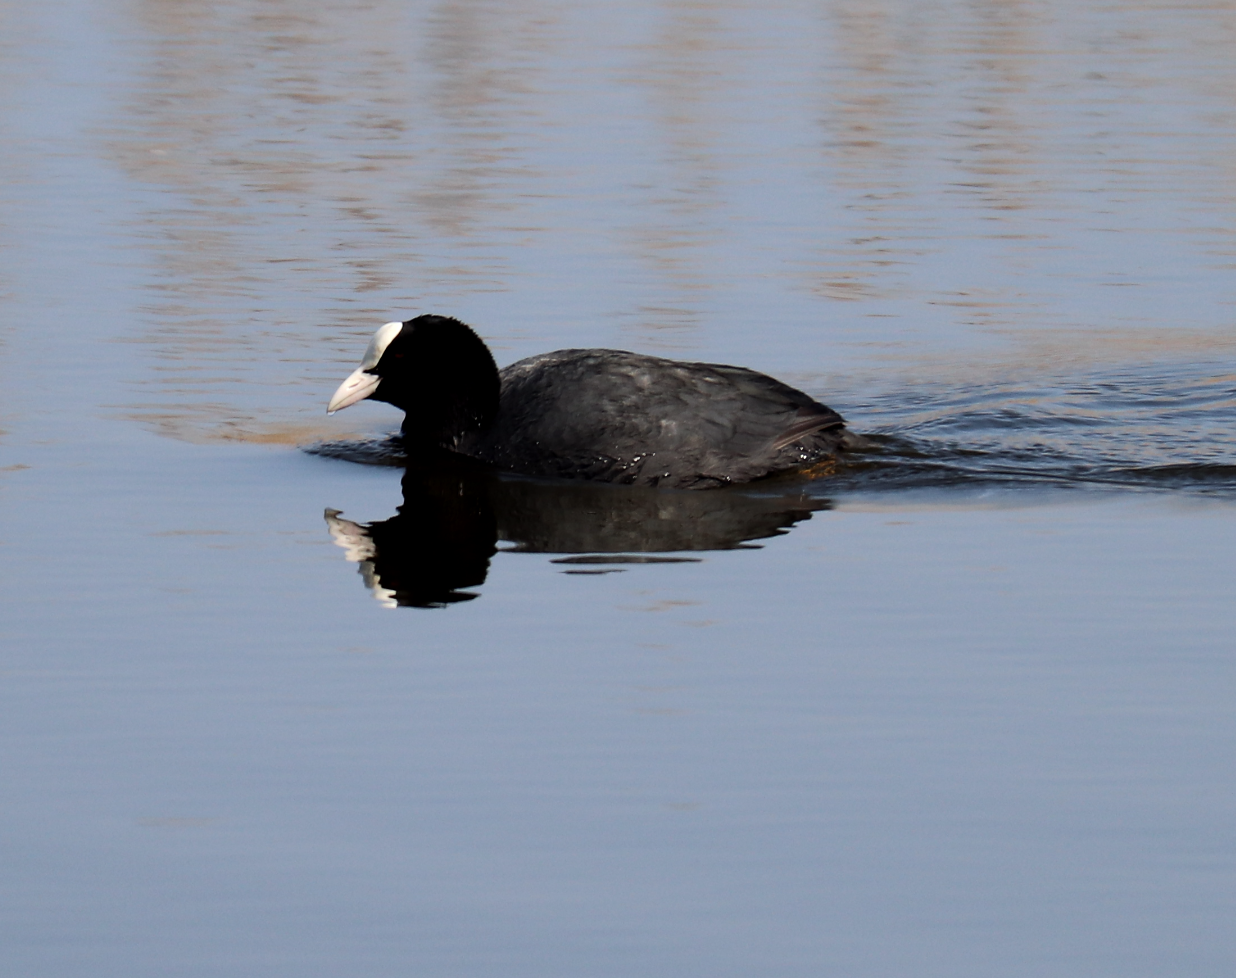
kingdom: Animalia
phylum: Chordata
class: Aves
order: Gruiformes
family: Rallidae
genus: Fulica
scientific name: Fulica atra
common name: Eurasian coot
